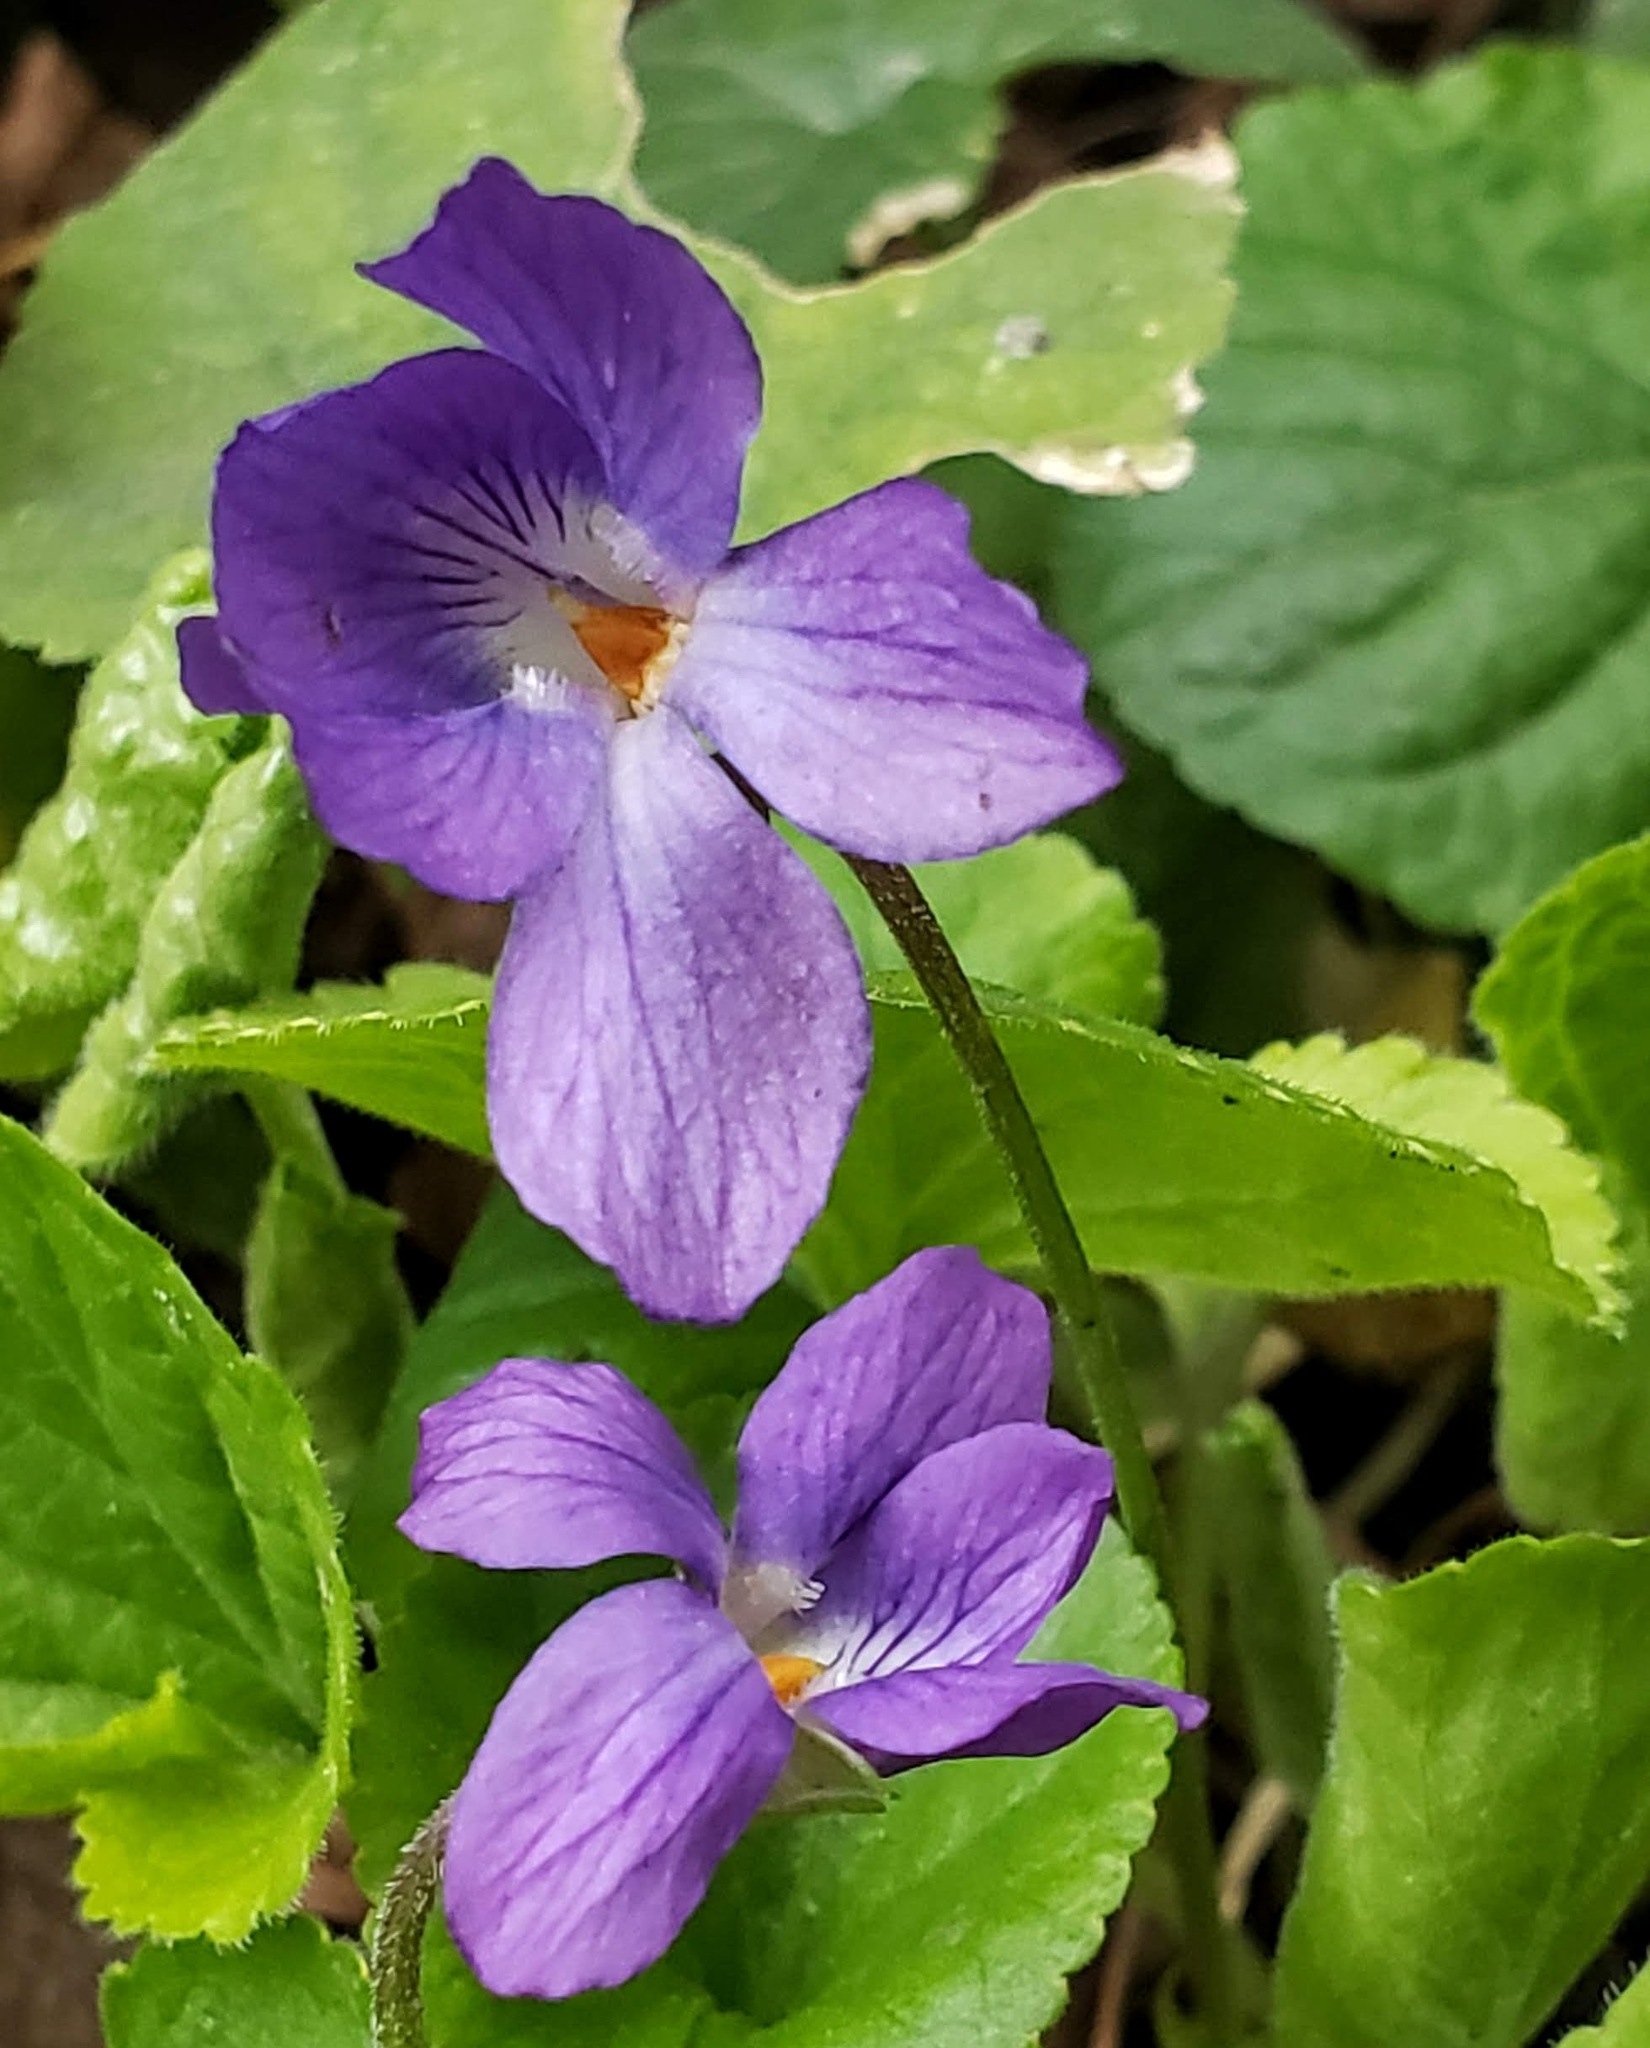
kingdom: Plantae
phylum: Tracheophyta
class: Magnoliopsida
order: Malpighiales
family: Violaceae
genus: Viola
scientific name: Viola odorata
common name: Sweet violet
